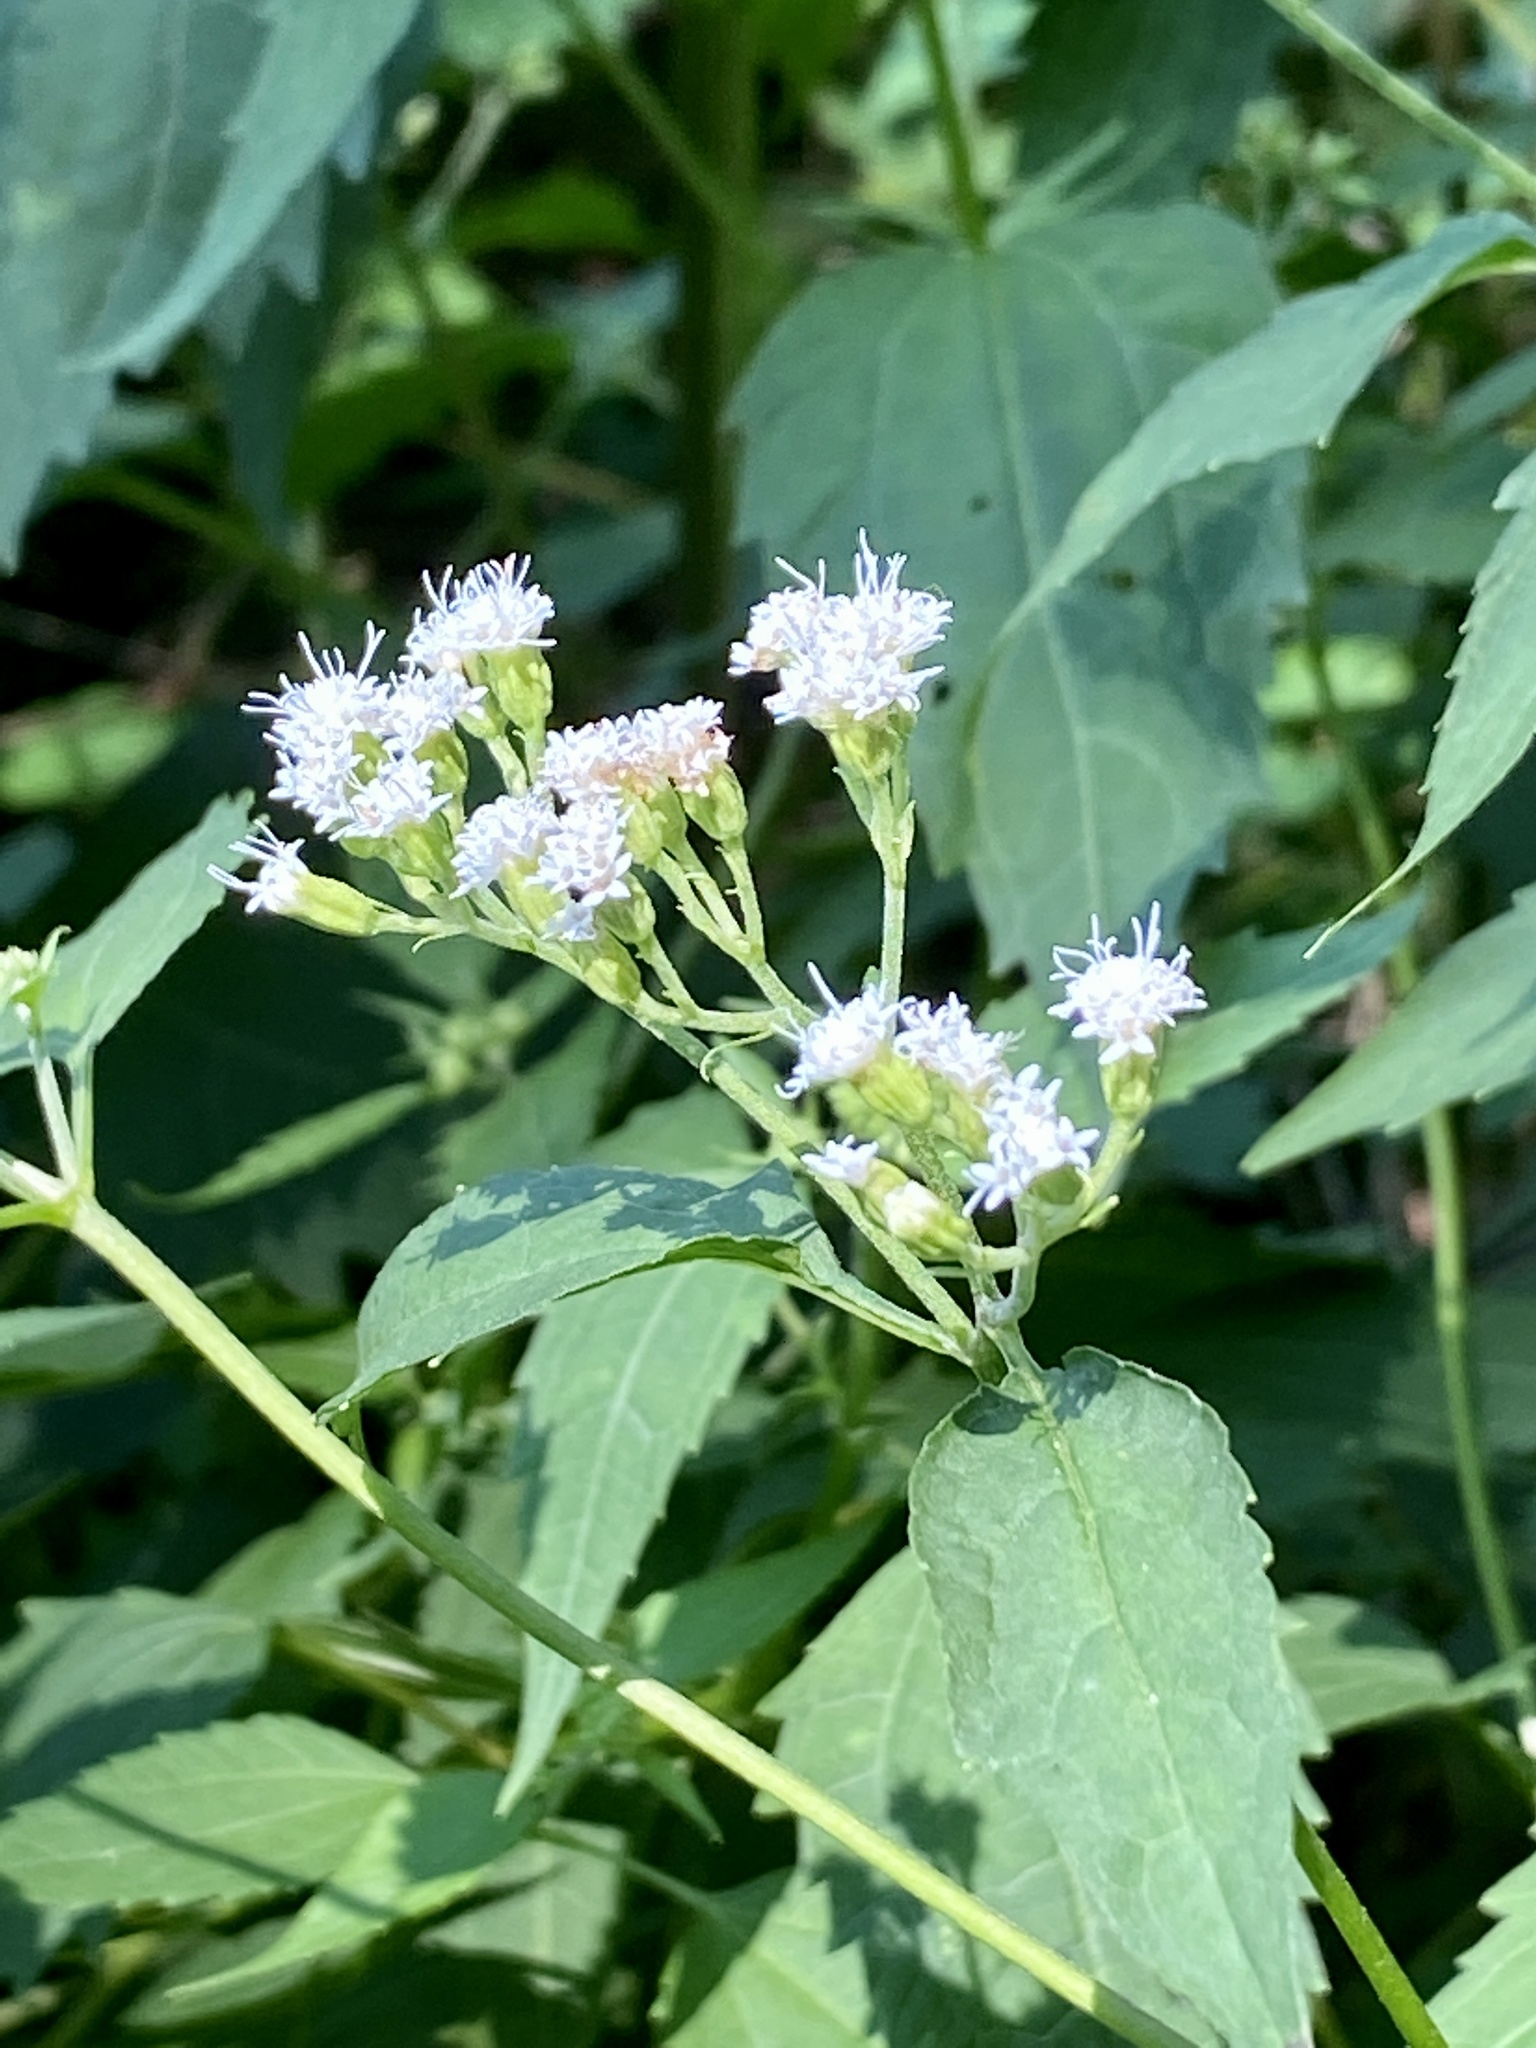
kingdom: Plantae
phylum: Tracheophyta
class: Magnoliopsida
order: Asterales
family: Asteraceae
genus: Ageratina
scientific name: Ageratina altissima
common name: White snakeroot
